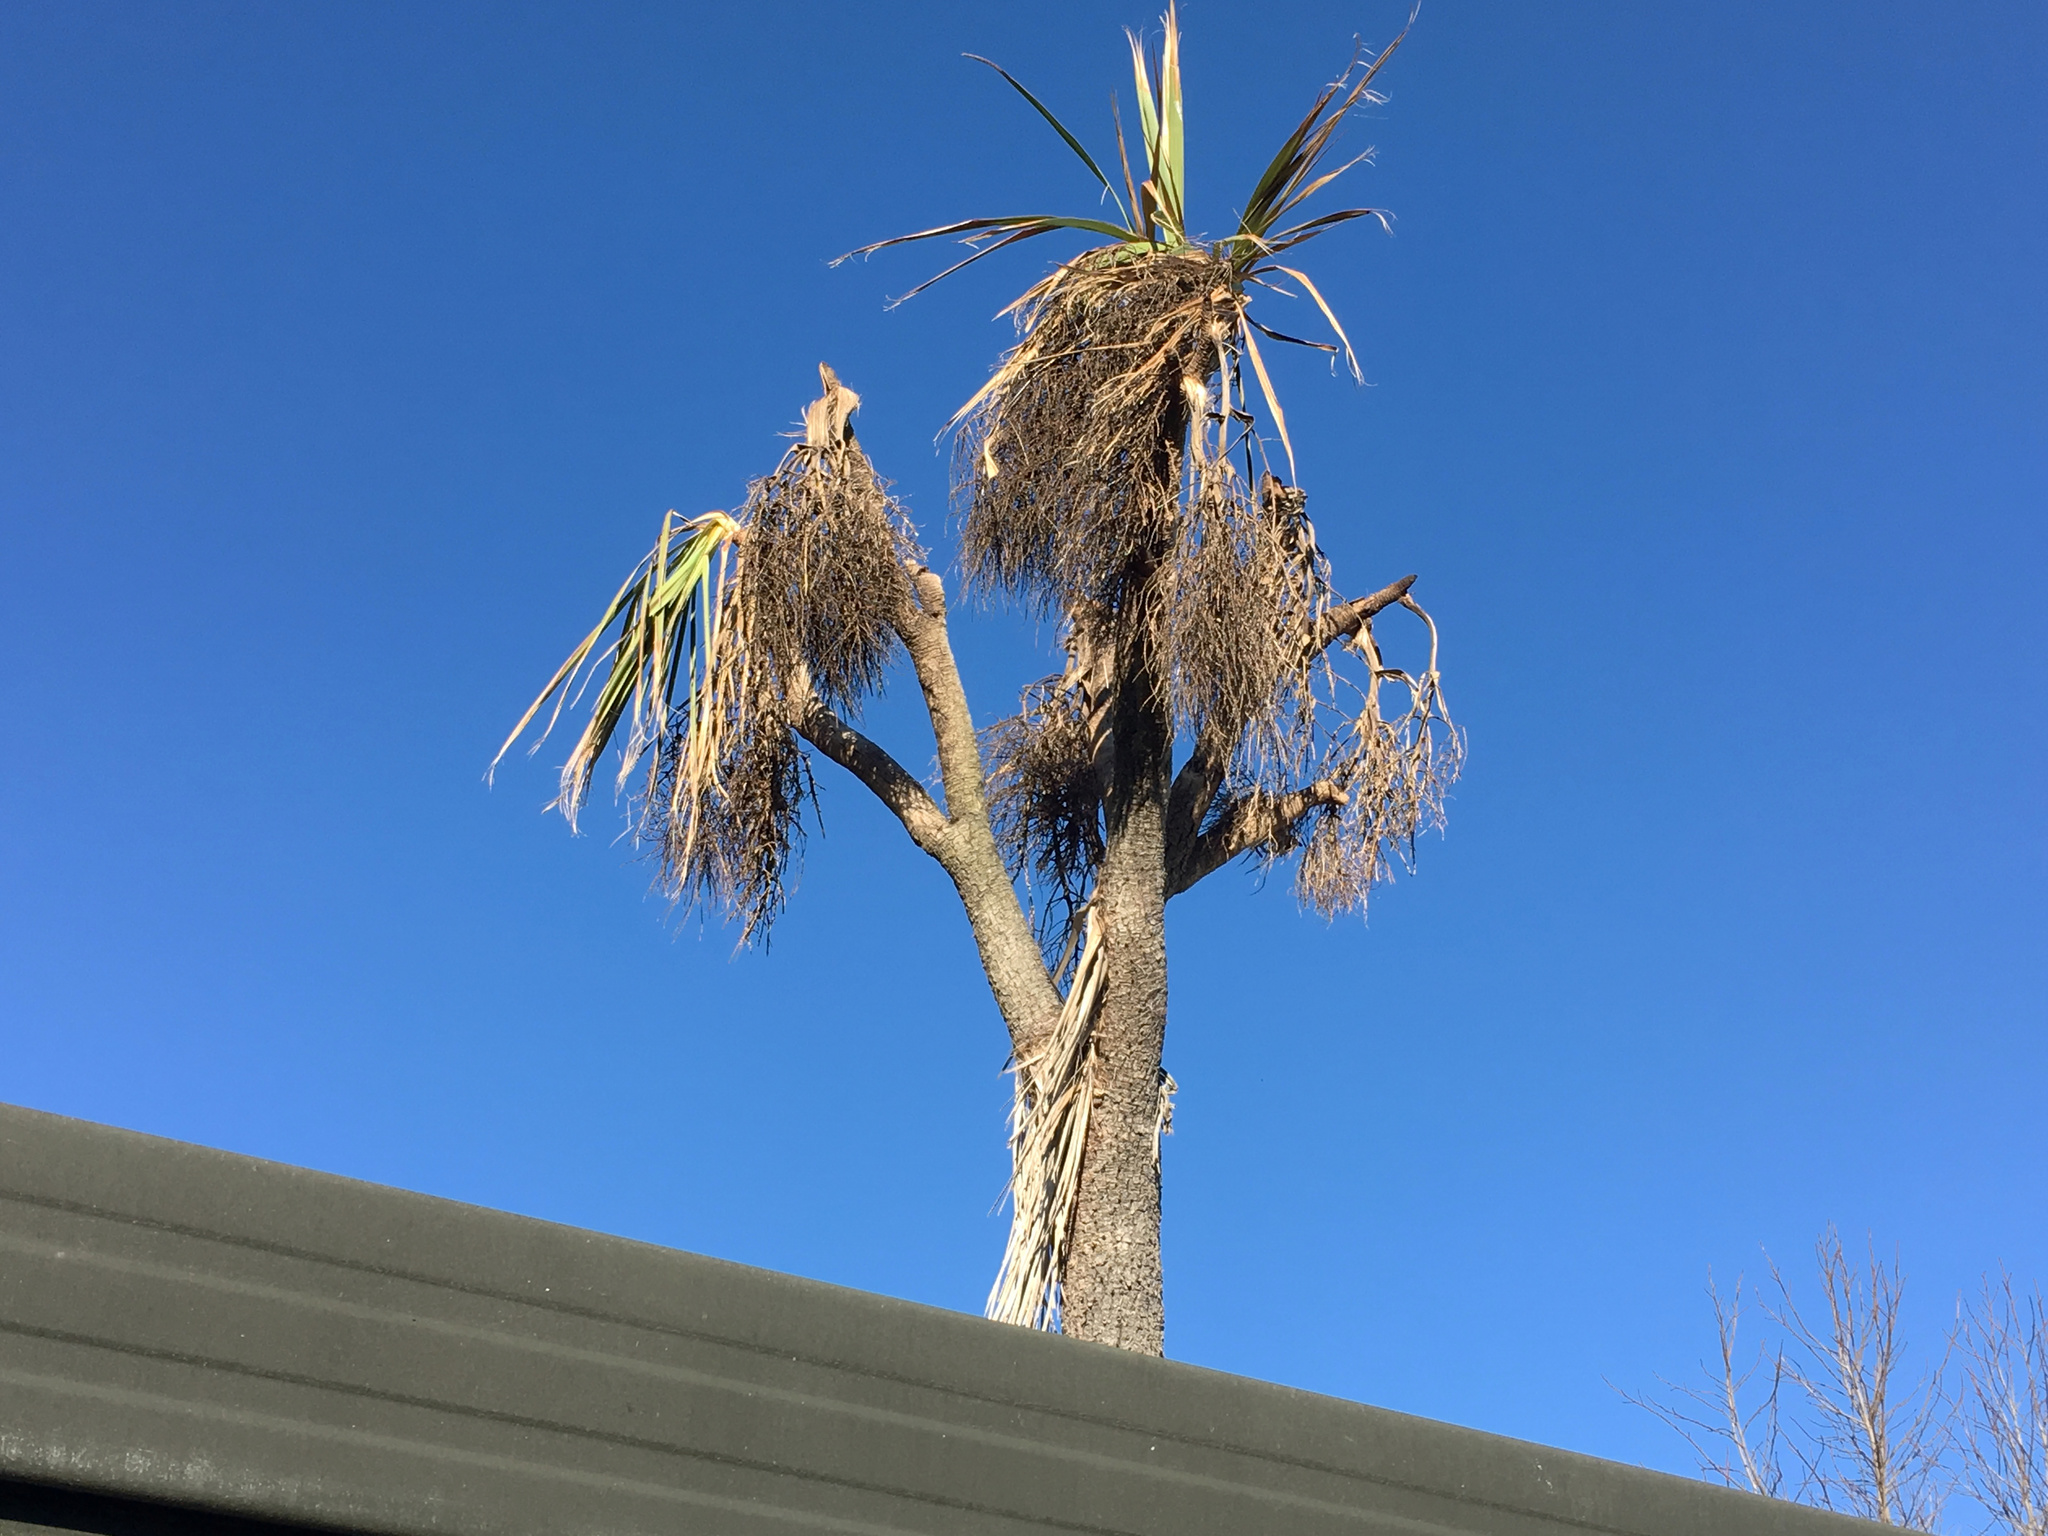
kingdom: Plantae
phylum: Tracheophyta
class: Liliopsida
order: Asparagales
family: Asparagaceae
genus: Cordyline
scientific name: Cordyline australis
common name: Cabbage-palm
